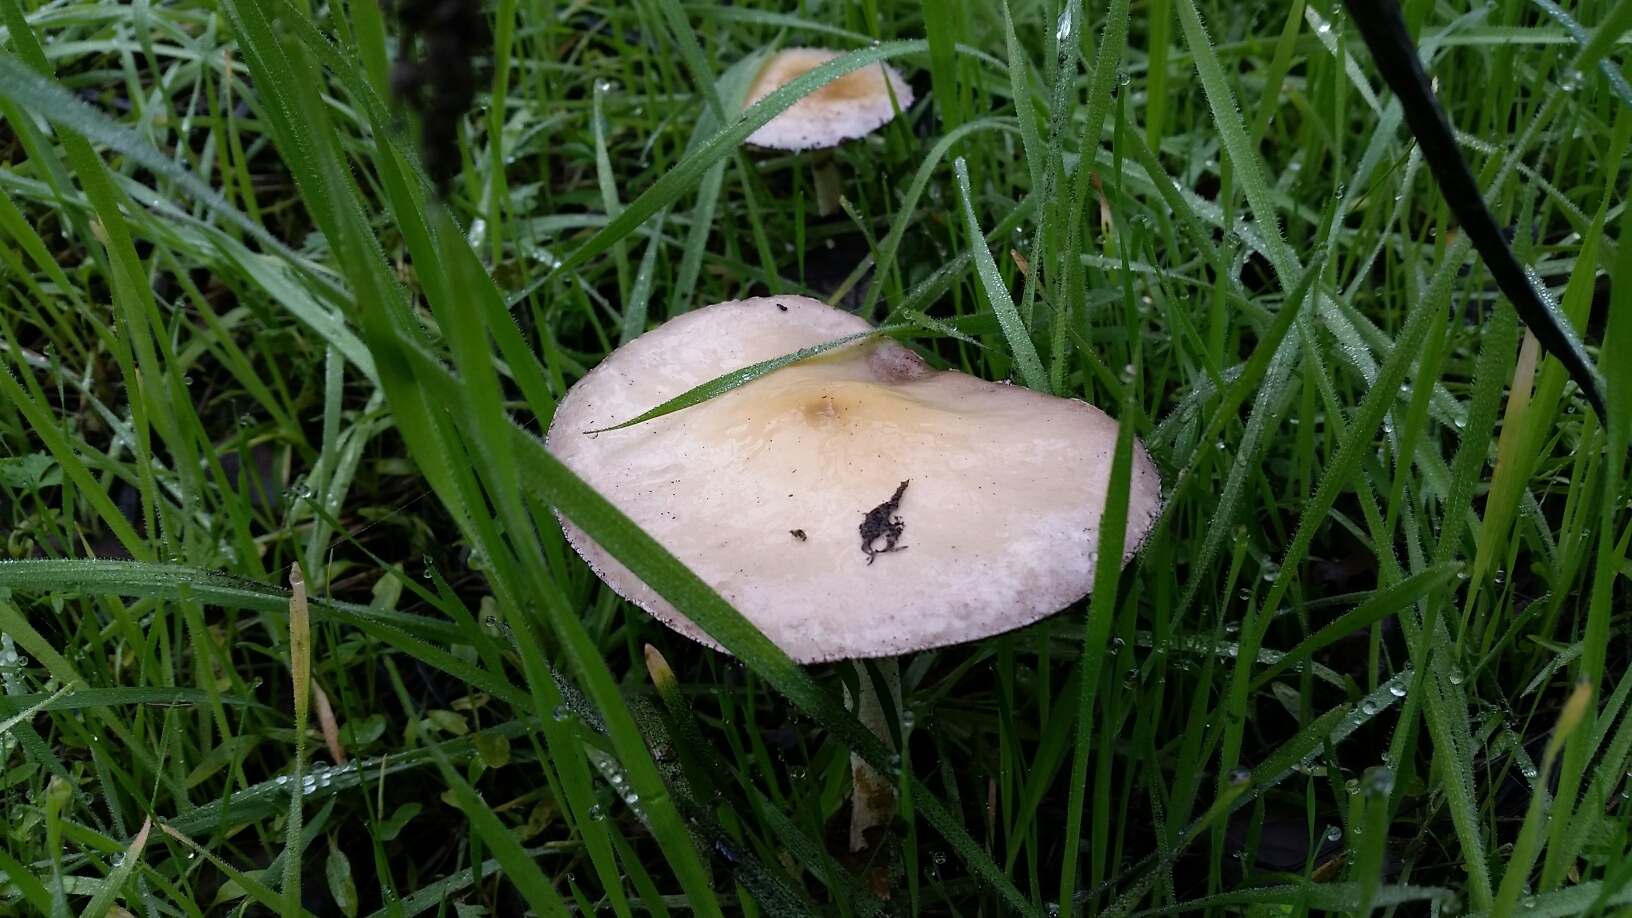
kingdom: Fungi
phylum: Basidiomycota
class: Agaricomycetes
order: Agaricales
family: Strophariaceae
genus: Stropharia
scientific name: Stropharia ambigua
